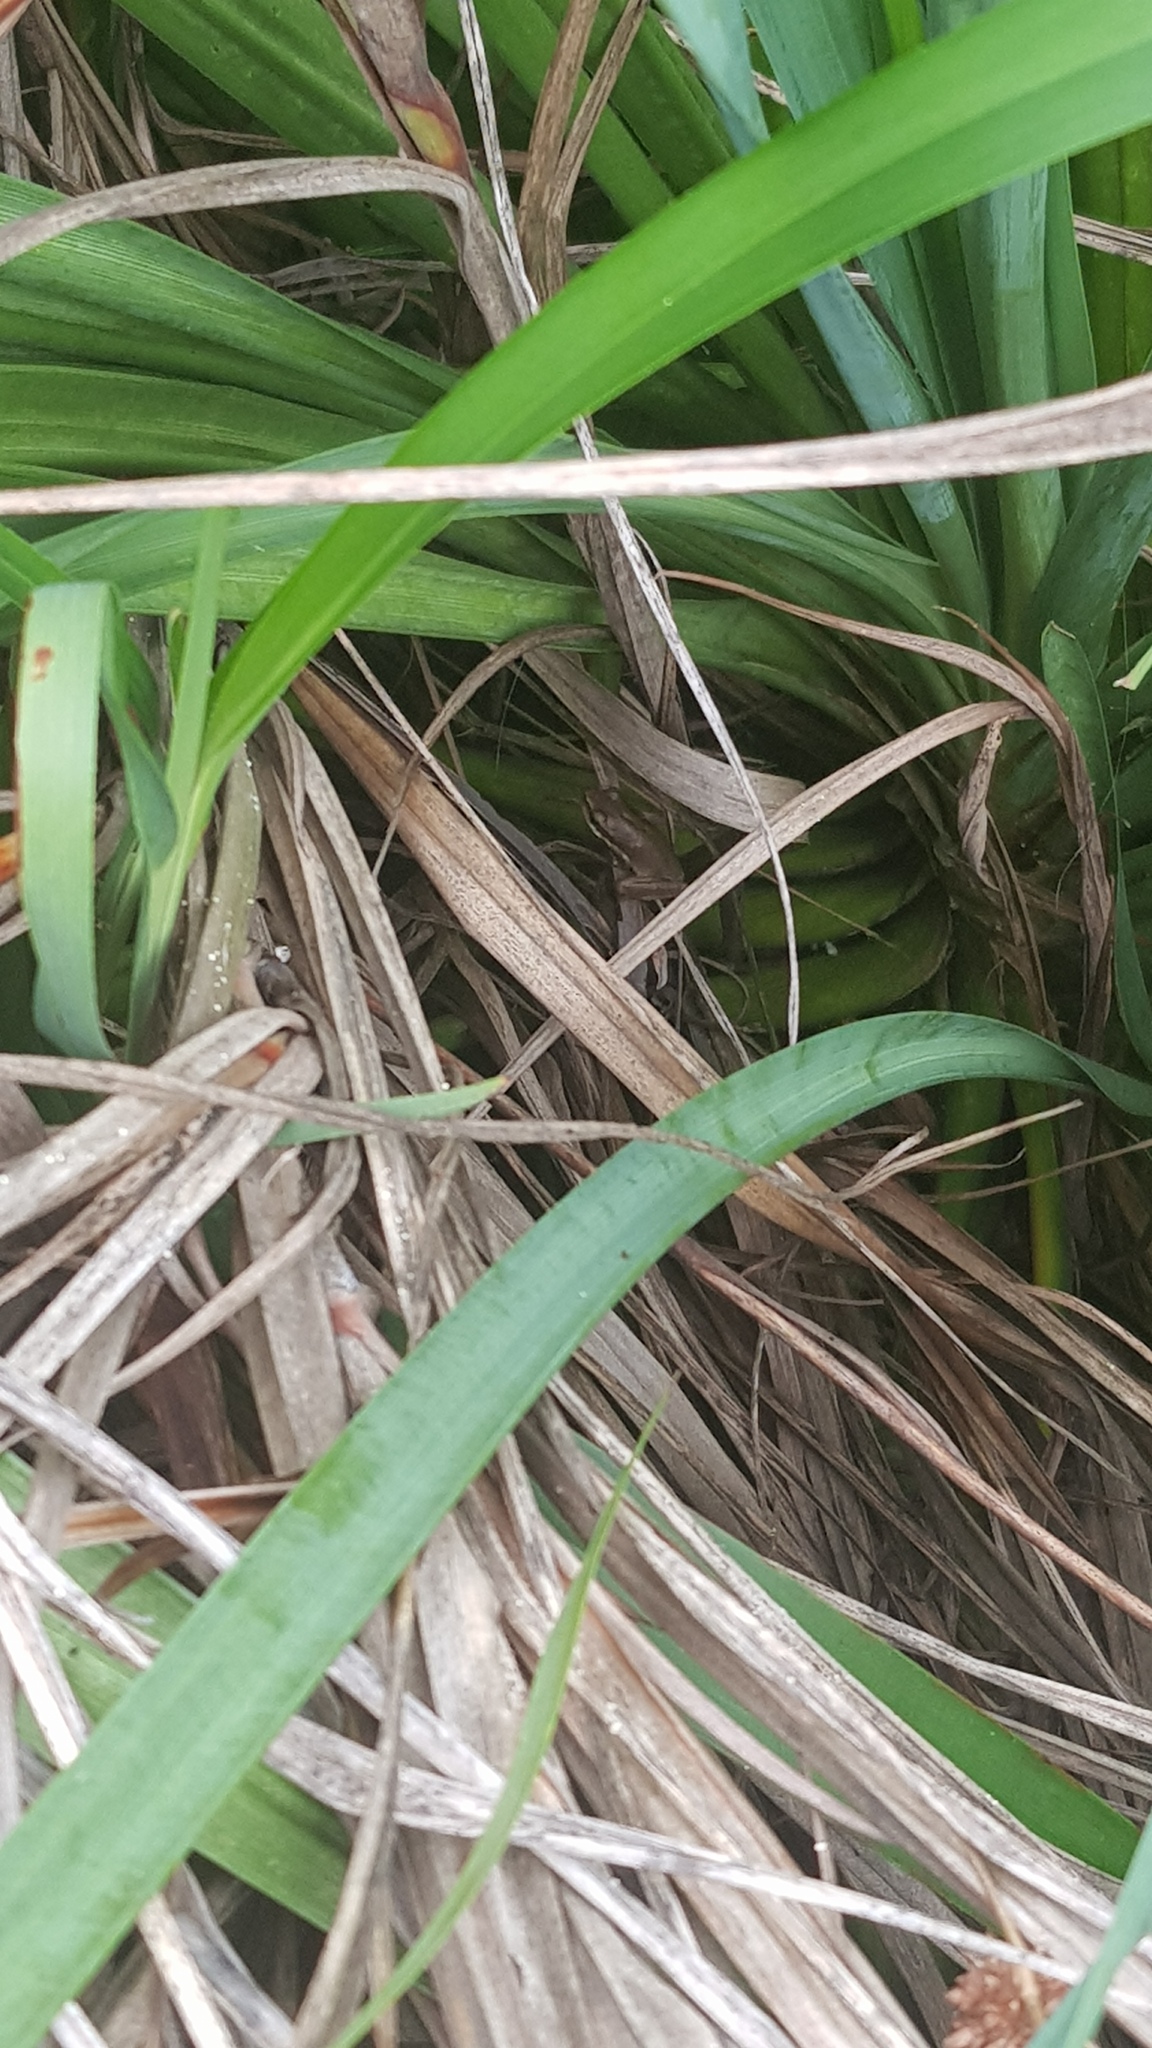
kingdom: Animalia
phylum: Chordata
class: Amphibia
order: Anura
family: Pelodryadidae
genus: Litoria
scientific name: Litoria fallax
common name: Eastern dwarf treefrog
